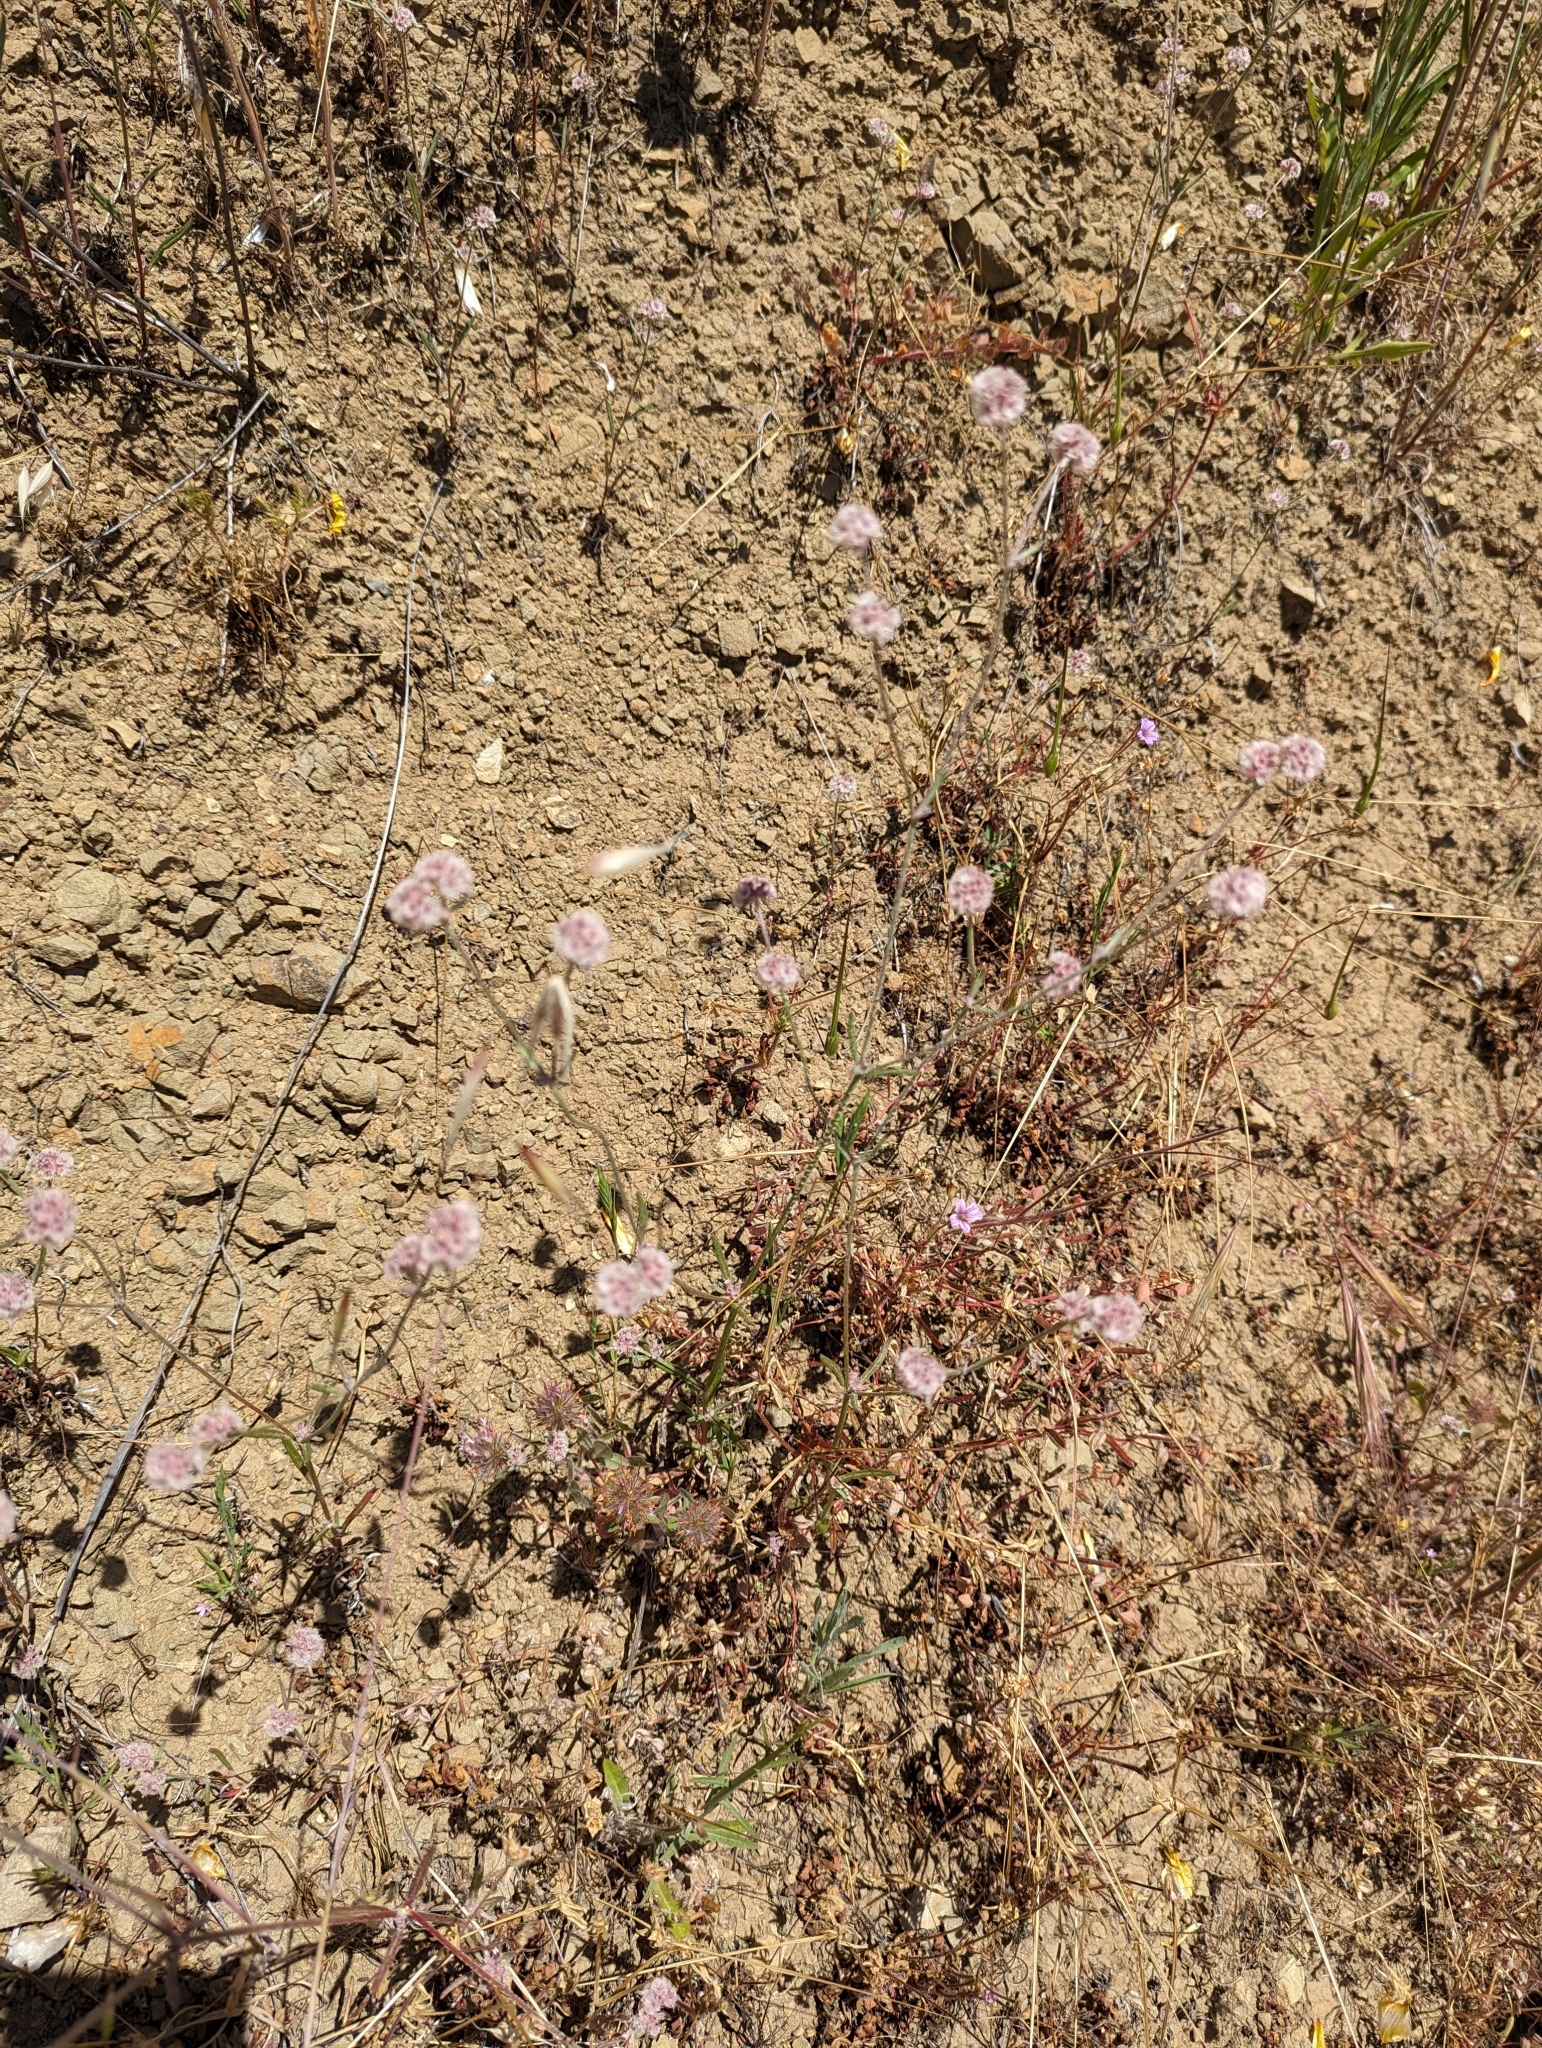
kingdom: Plantae
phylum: Tracheophyta
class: Magnoliopsida
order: Caryophyllales
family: Polygonaceae
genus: Chorizanthe
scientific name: Chorizanthe membranacea
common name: Pink spineflower
